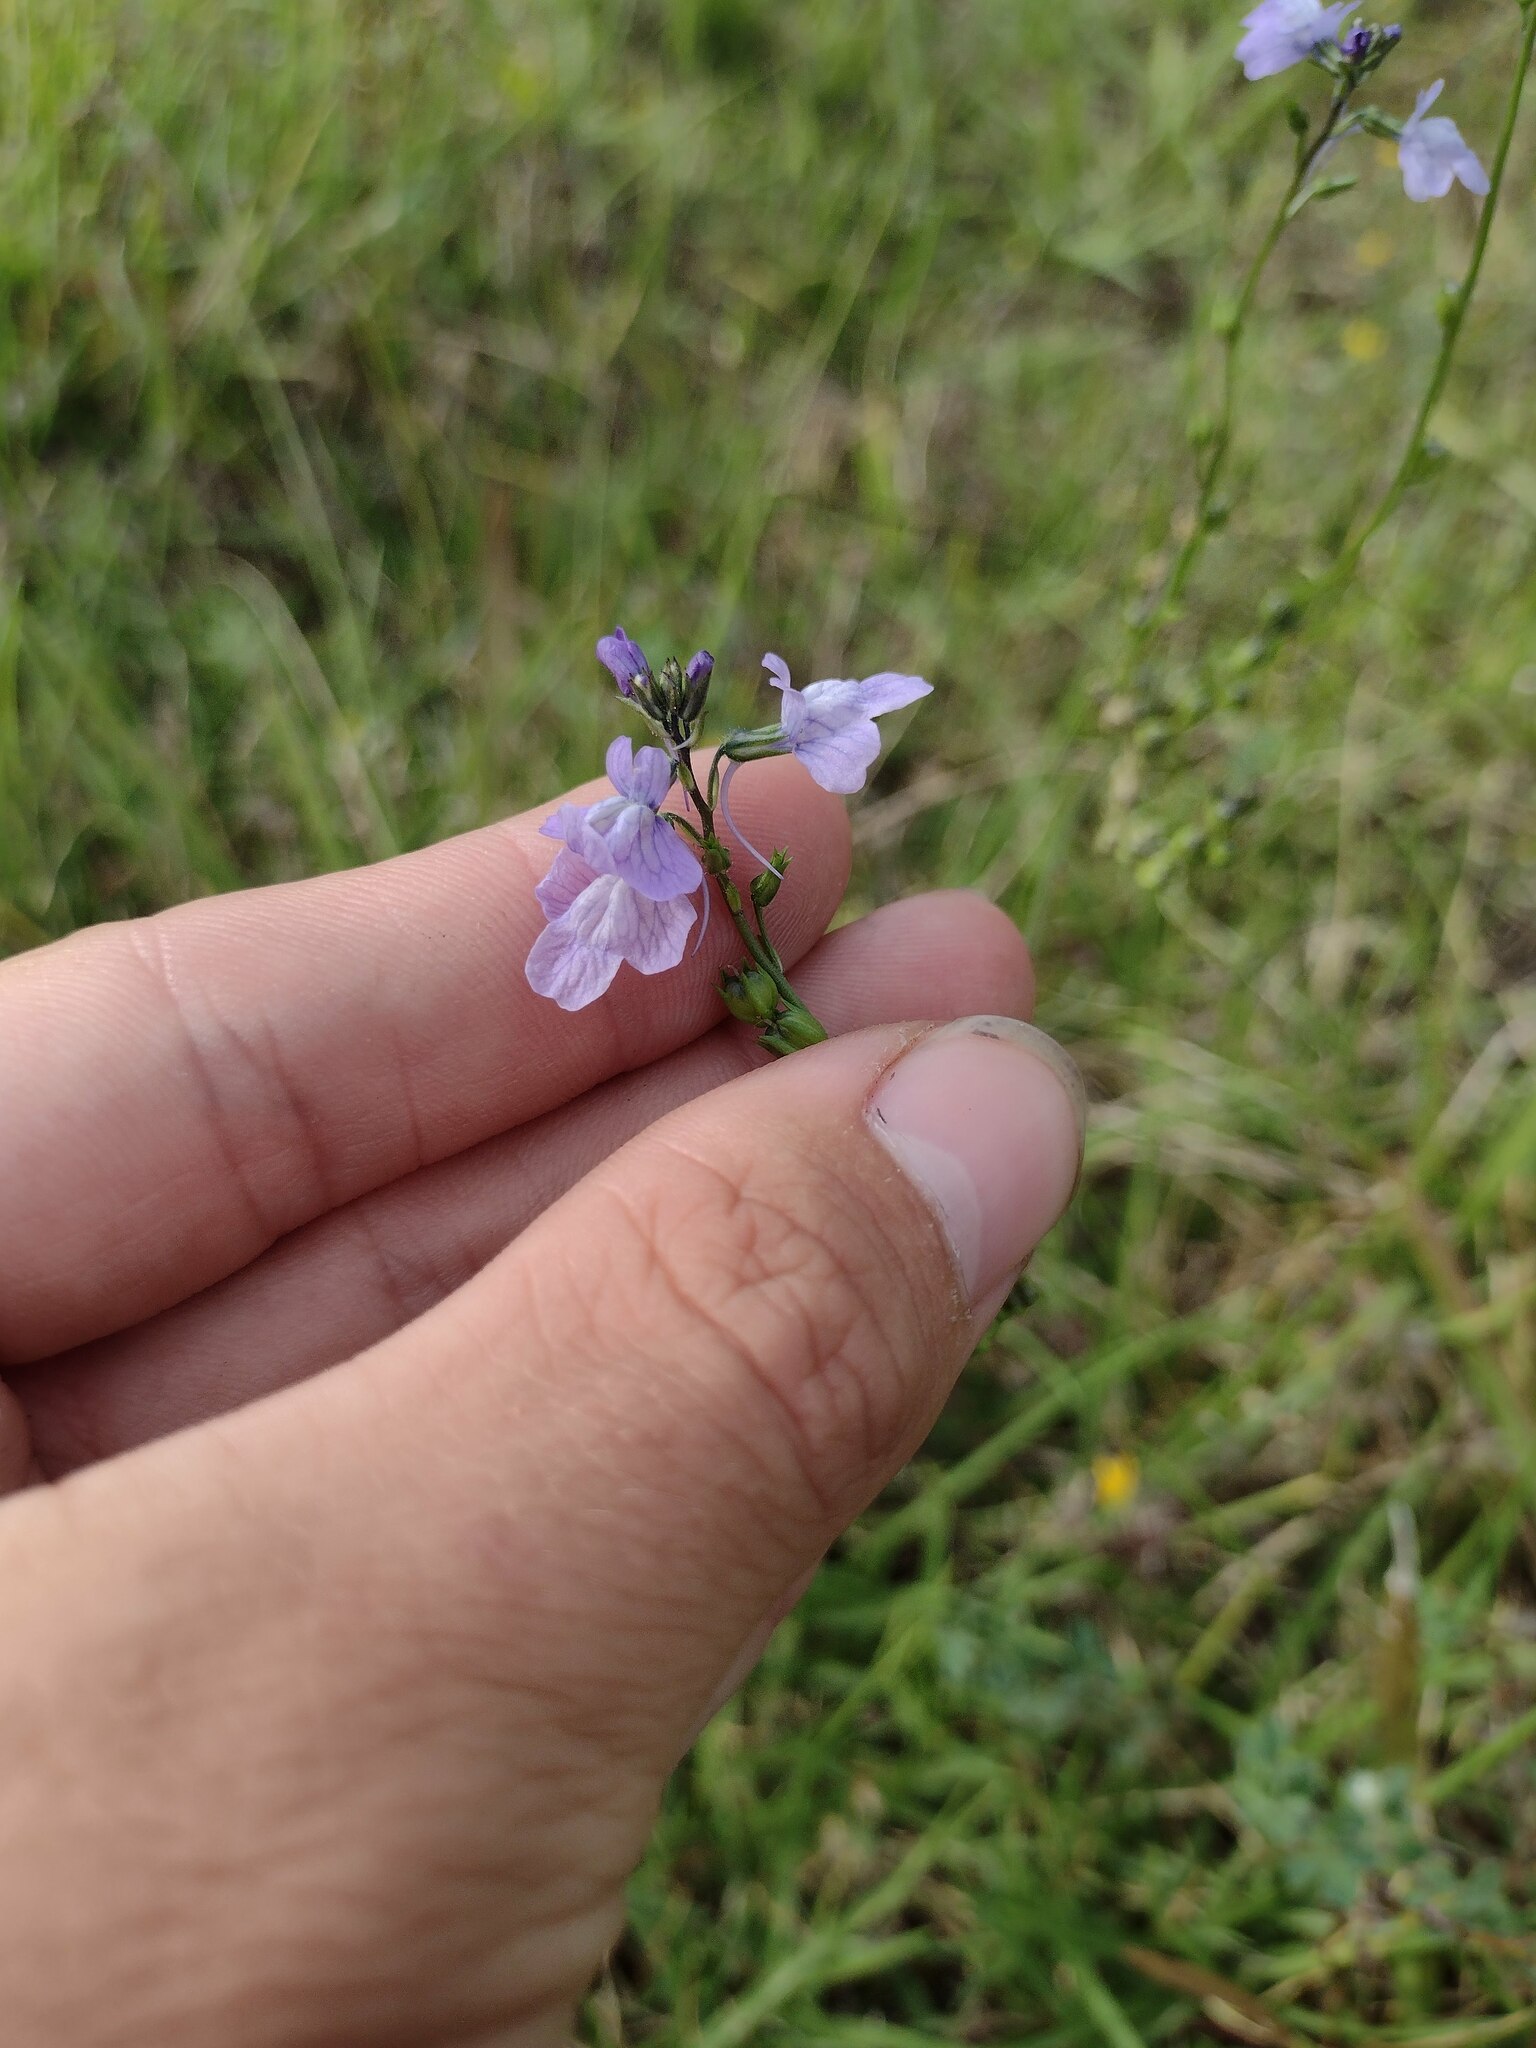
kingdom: Plantae
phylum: Tracheophyta
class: Magnoliopsida
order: Lamiales
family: Plantaginaceae
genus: Nuttallanthus
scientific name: Nuttallanthus texanus
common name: Texas toadflax
